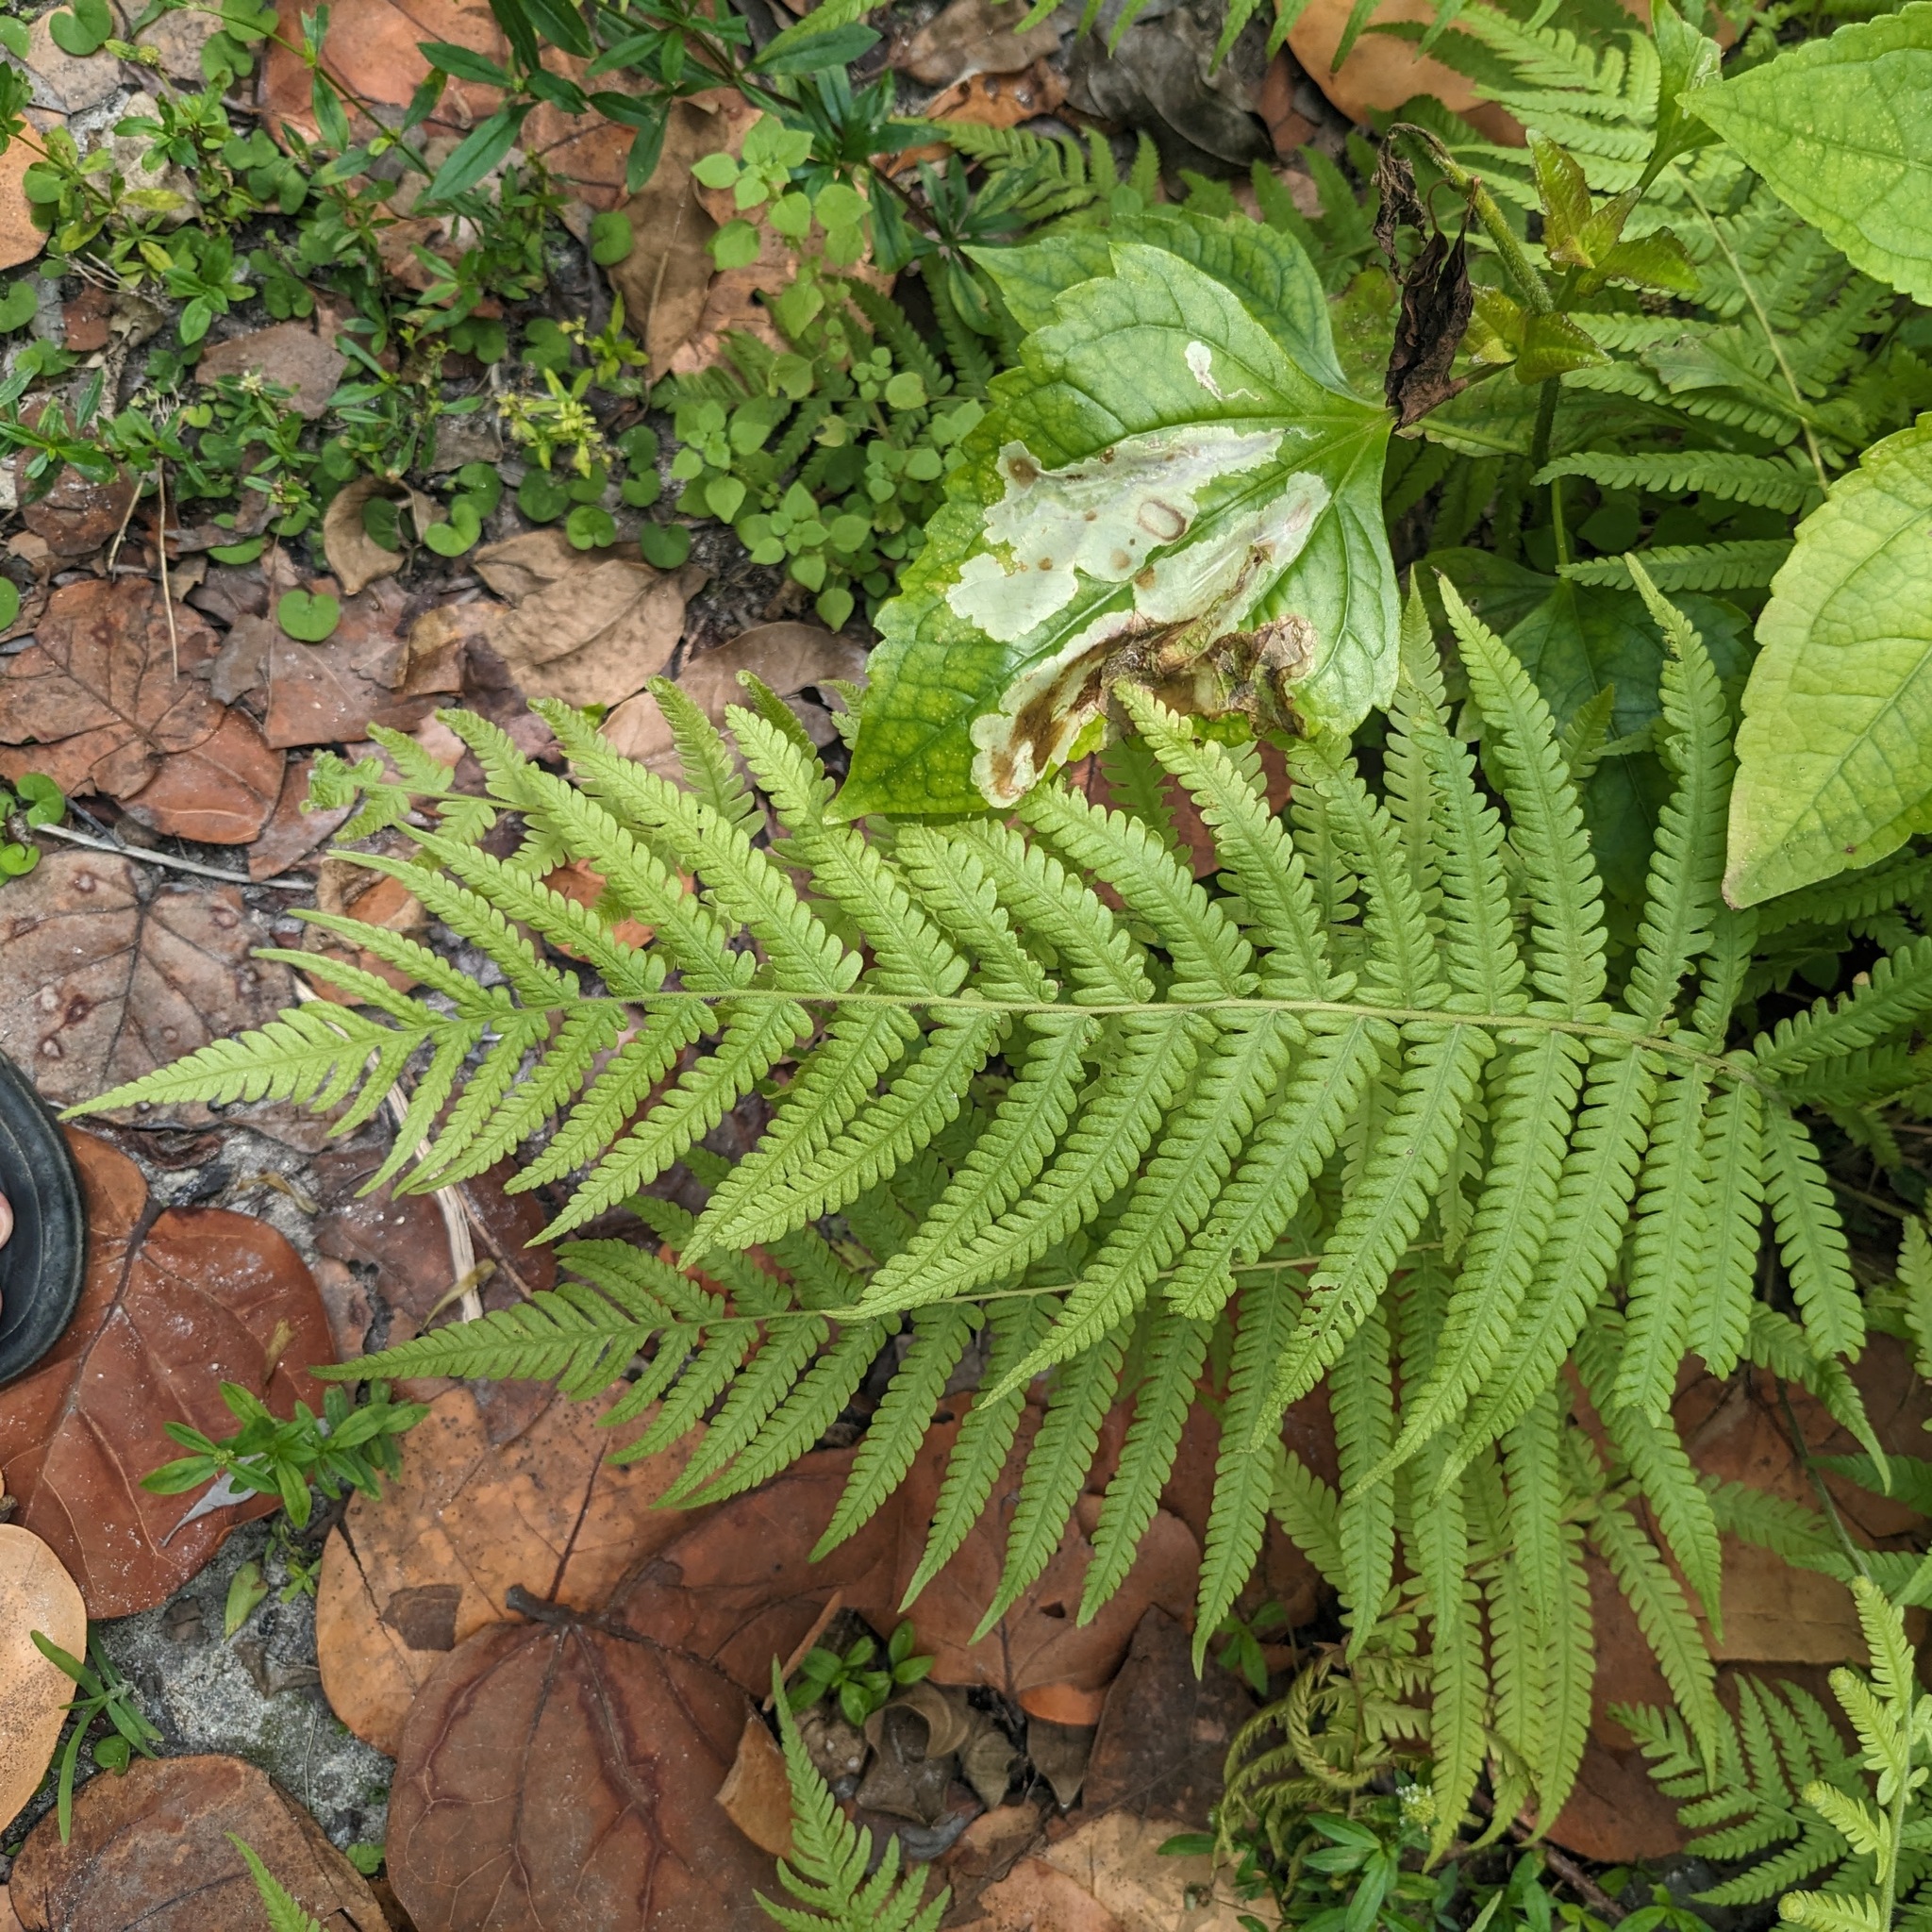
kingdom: Plantae
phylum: Tracheophyta
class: Polypodiopsida
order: Polypodiales
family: Thelypteridaceae
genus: Pelazoneuron
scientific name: Pelazoneuron kunthii
